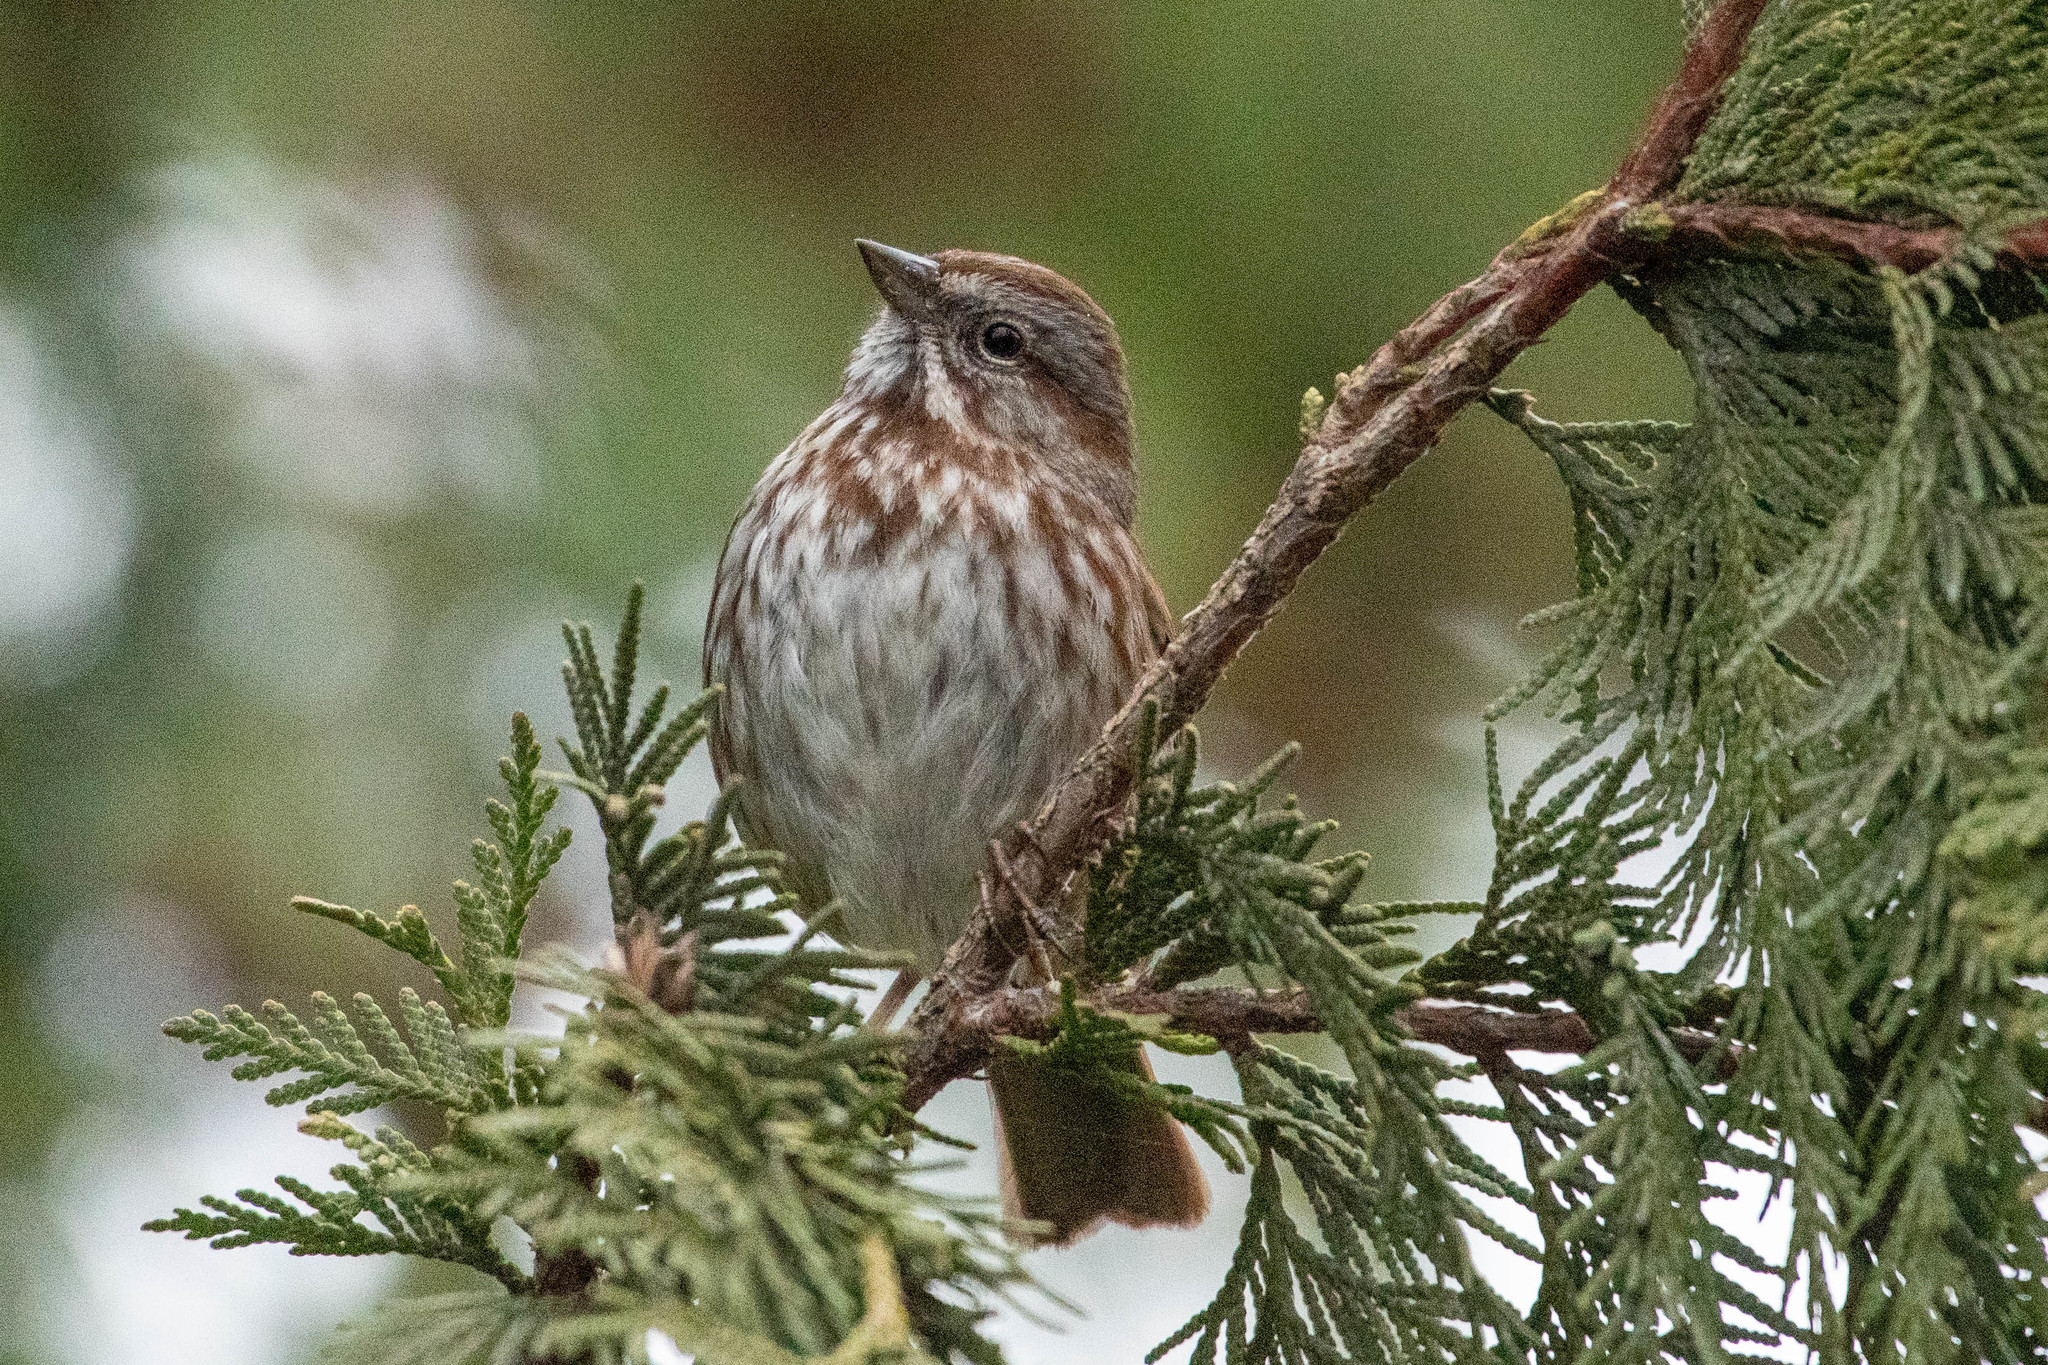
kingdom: Animalia
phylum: Chordata
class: Aves
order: Passeriformes
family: Passerellidae
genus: Melospiza
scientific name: Melospiza melodia
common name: Song sparrow
